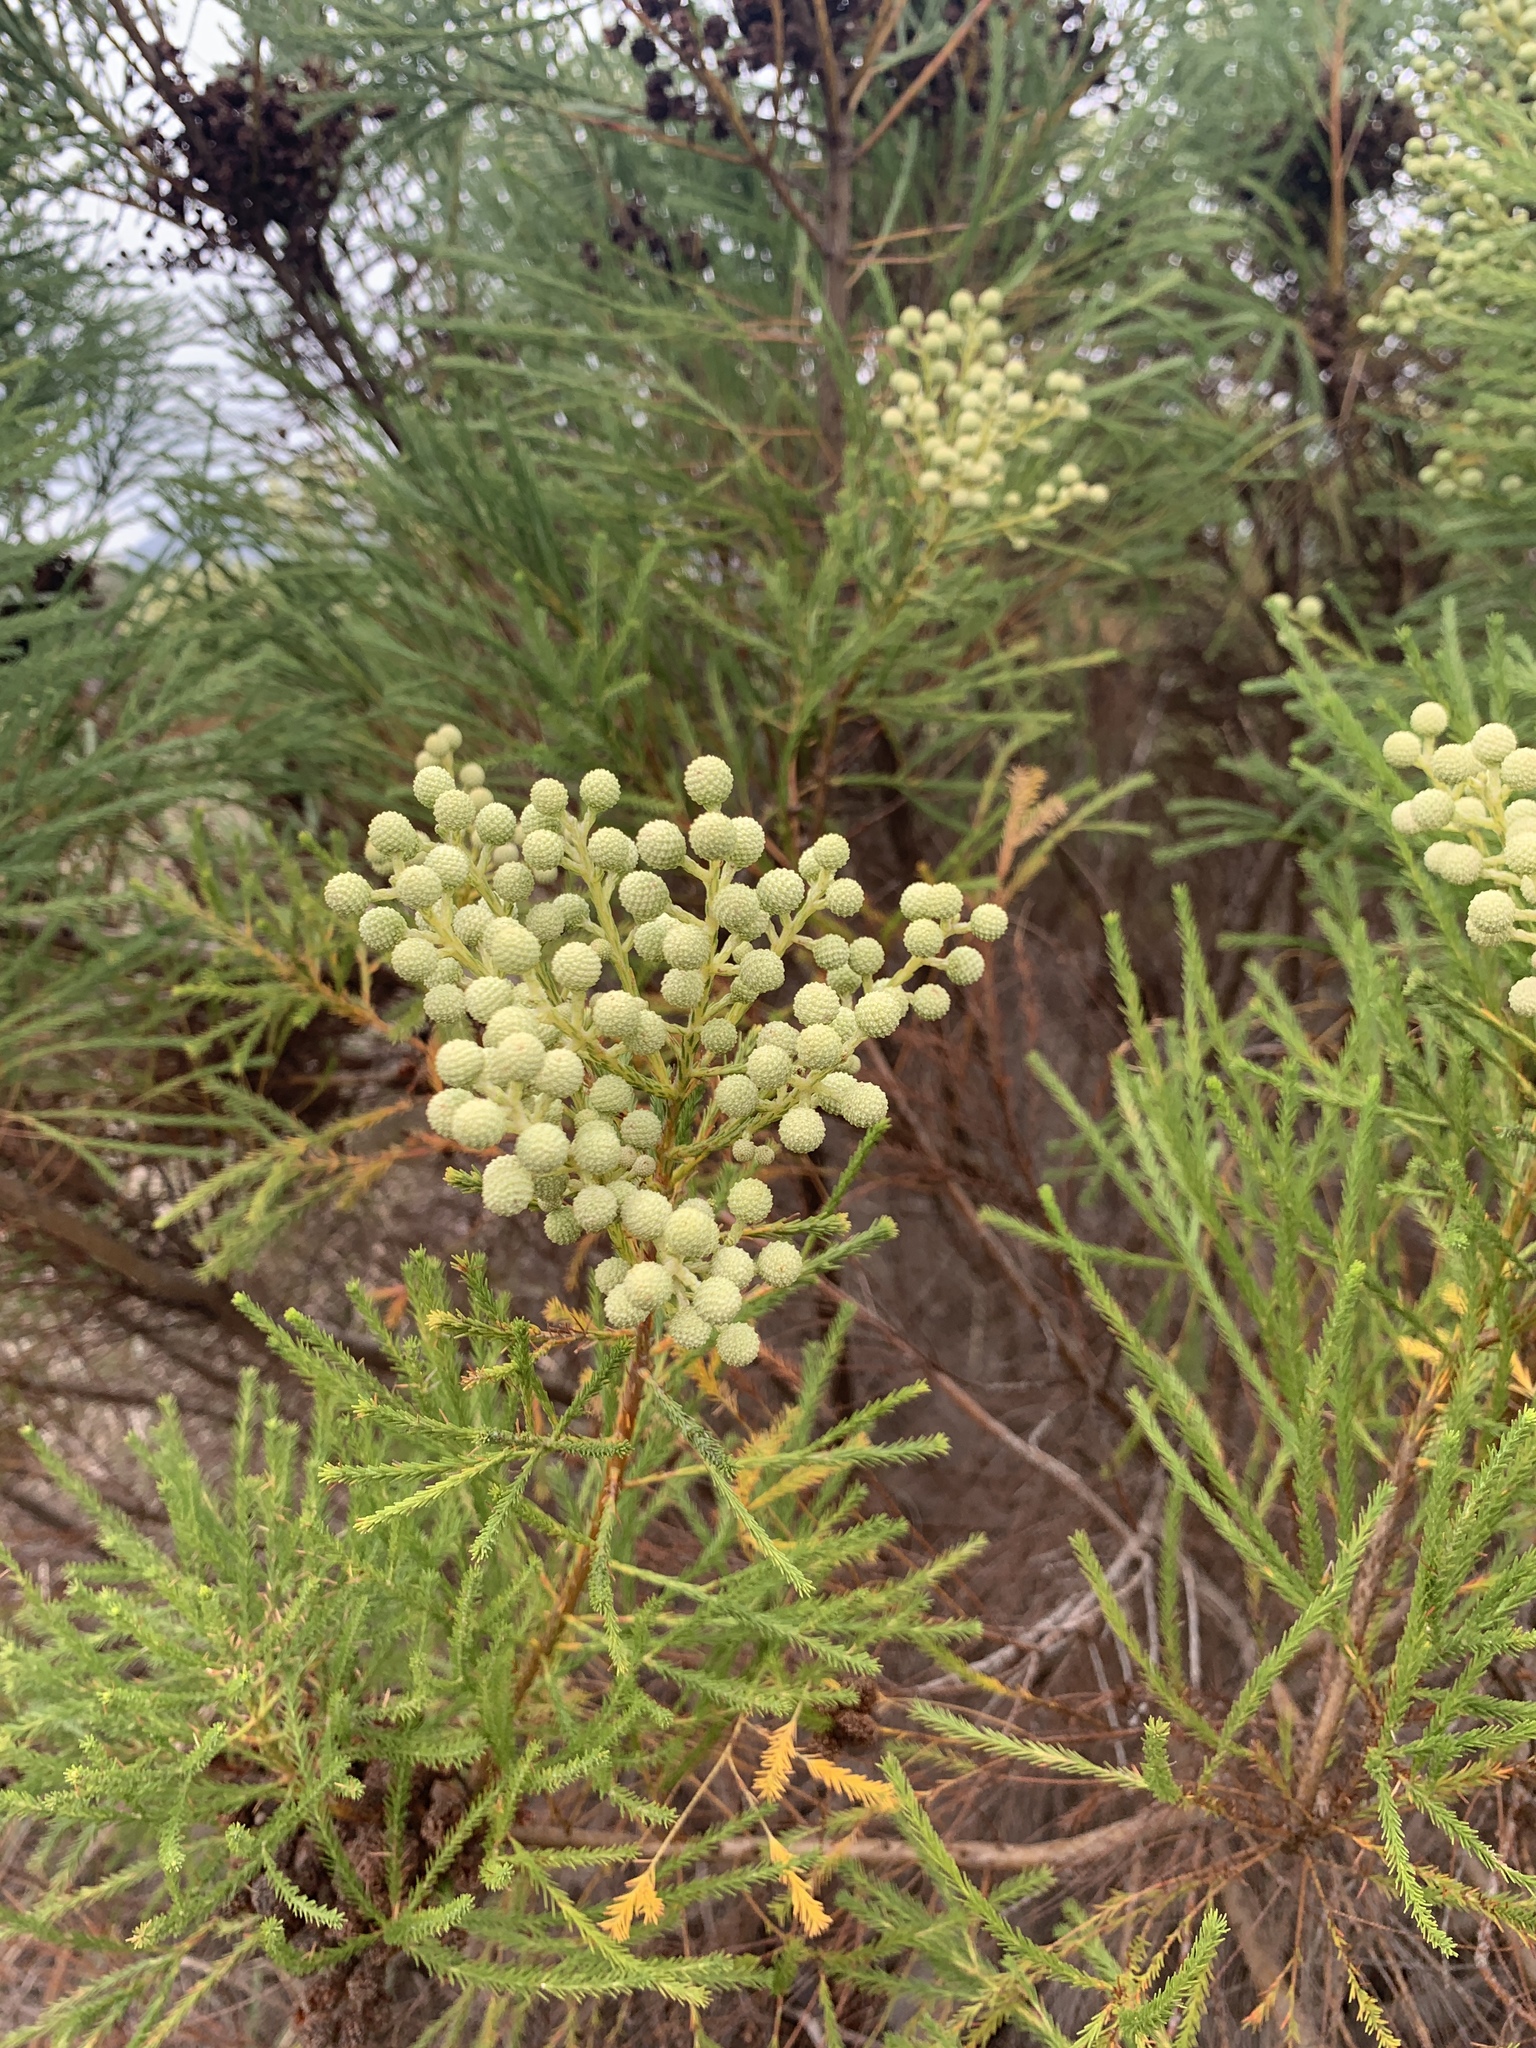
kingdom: Plantae
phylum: Tracheophyta
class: Magnoliopsida
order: Bruniales
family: Bruniaceae
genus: Berzelia
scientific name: Berzelia lanuginosa
